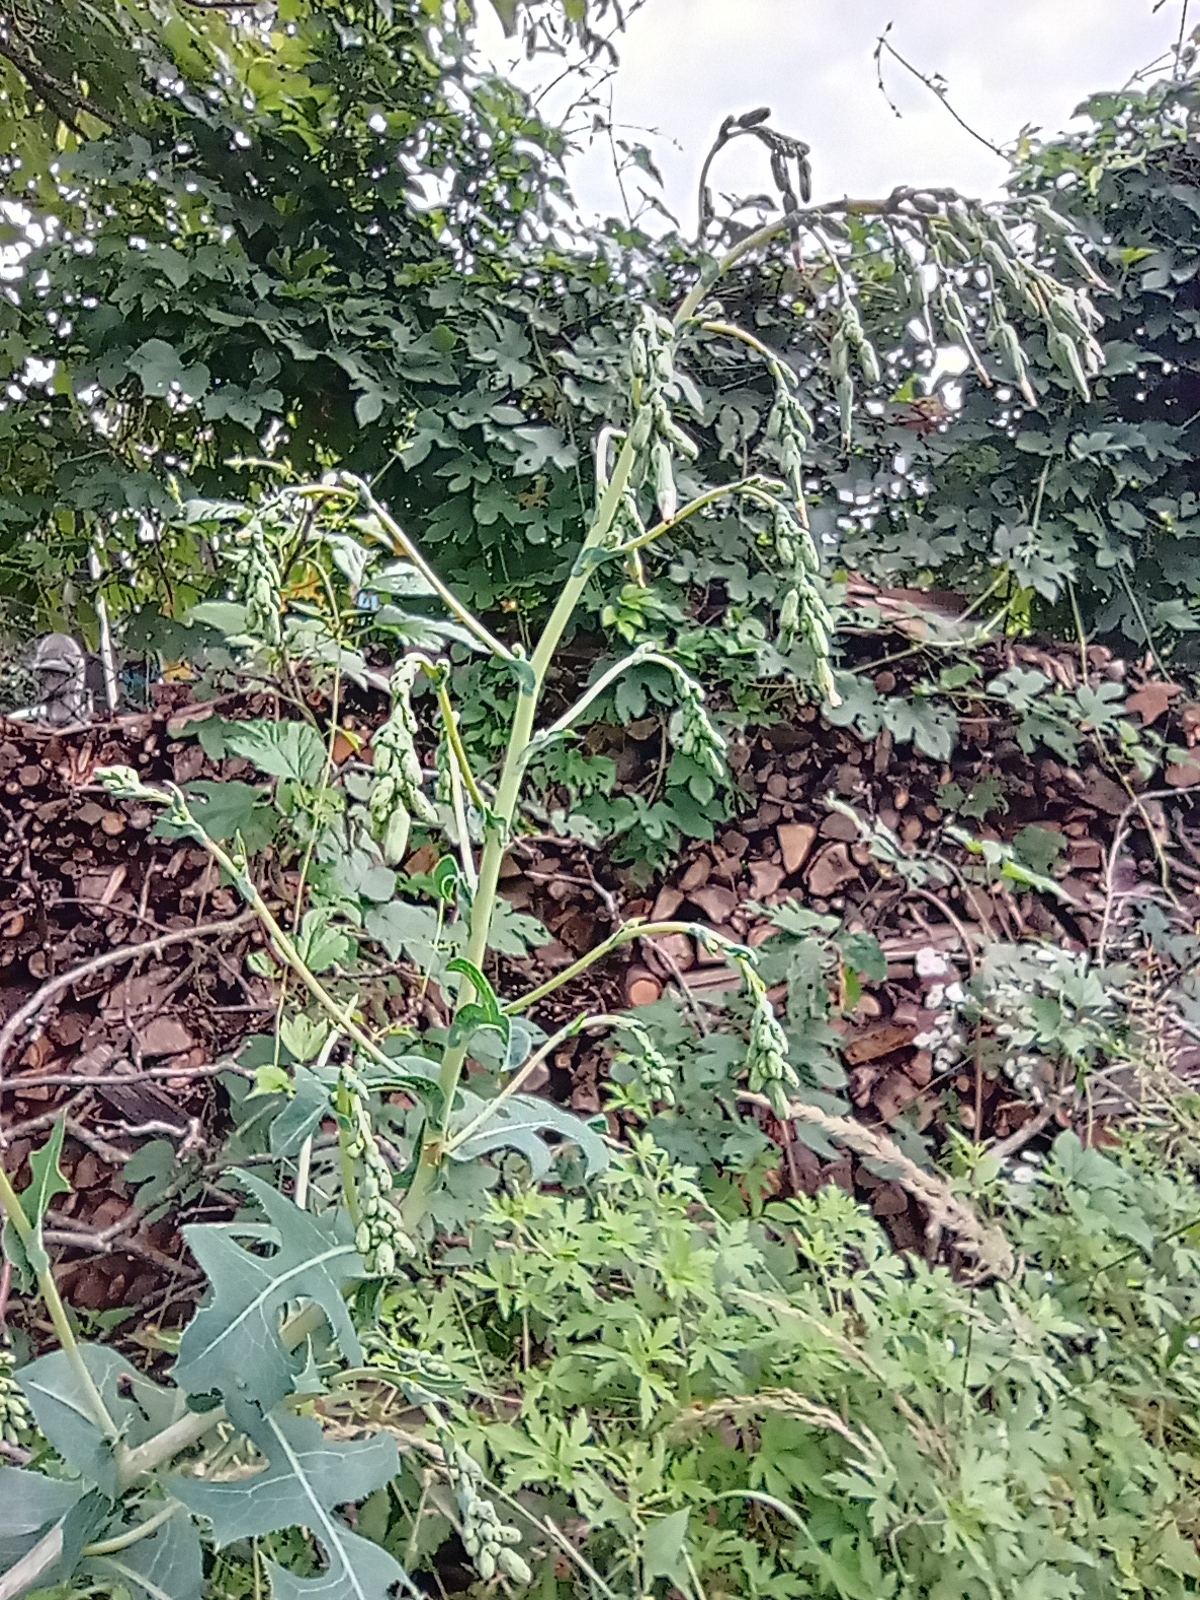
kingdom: Plantae
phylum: Tracheophyta
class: Magnoliopsida
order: Asterales
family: Asteraceae
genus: Lactuca
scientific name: Lactuca serriola
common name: Prickly lettuce
